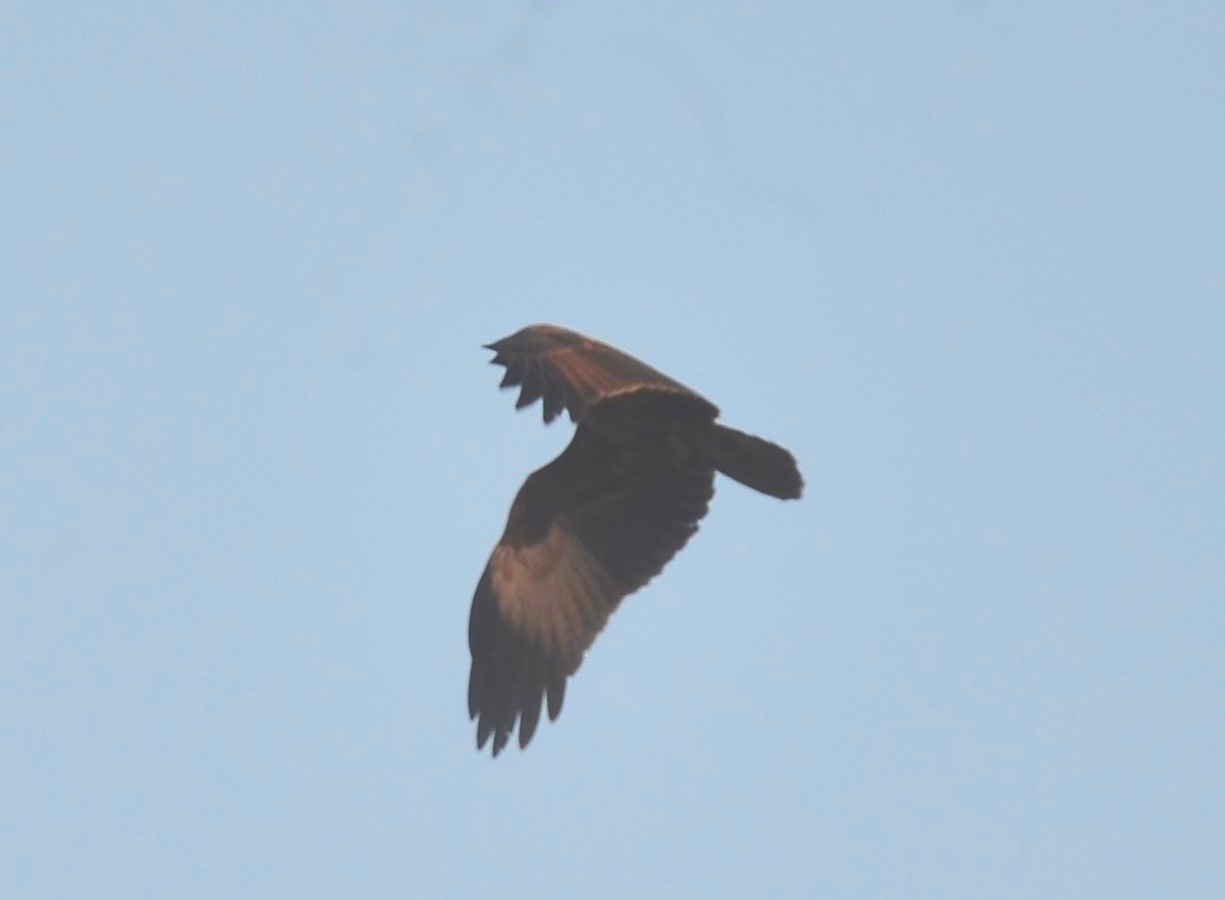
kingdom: Animalia
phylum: Chordata
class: Aves
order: Accipitriformes
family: Accipitridae
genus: Haliastur
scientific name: Haliastur indus
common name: Brahminy kite
